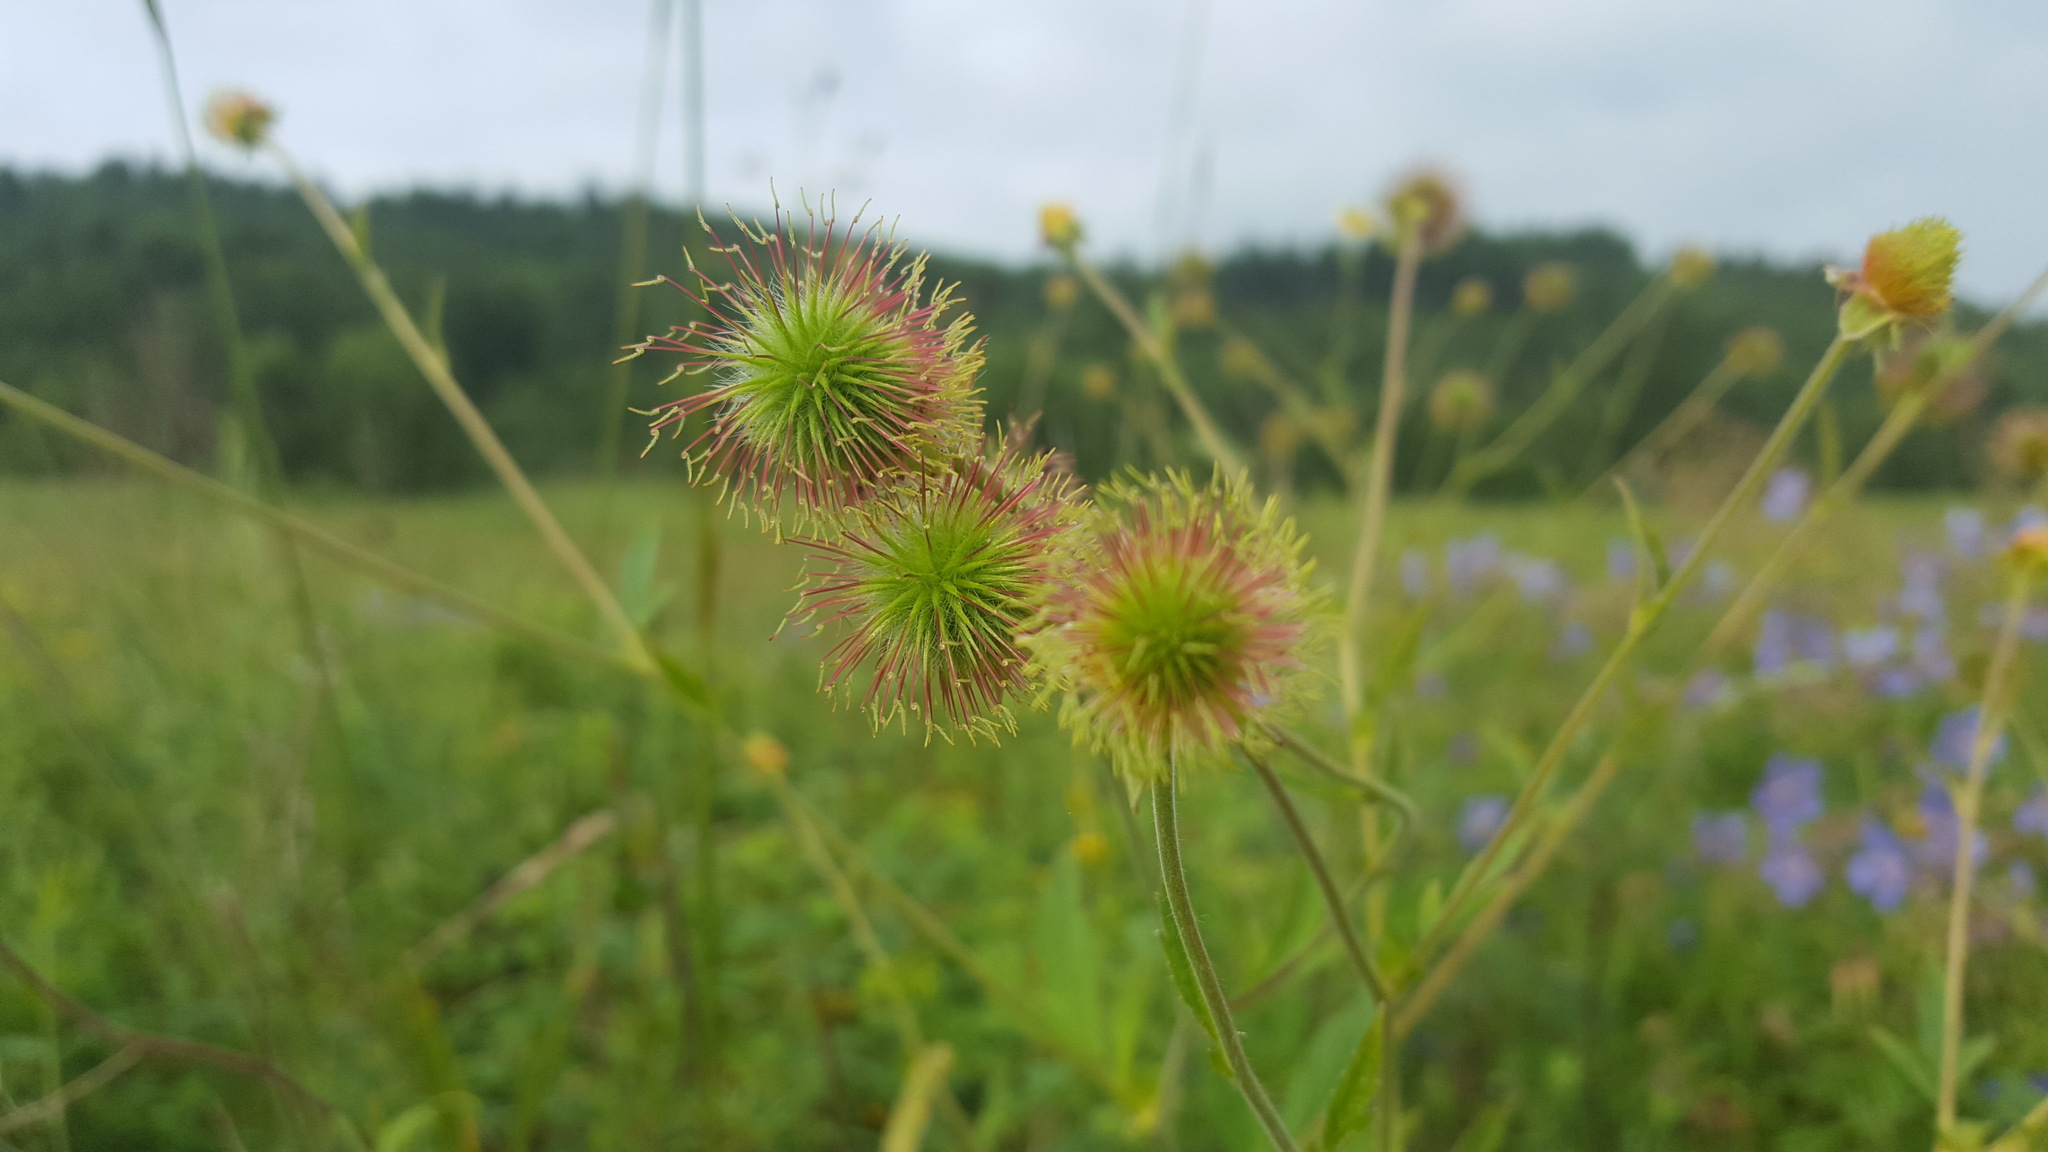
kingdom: Plantae
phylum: Tracheophyta
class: Magnoliopsida
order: Rosales
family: Rosaceae
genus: Geum
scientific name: Geum aleppicum
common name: Yellow avens
